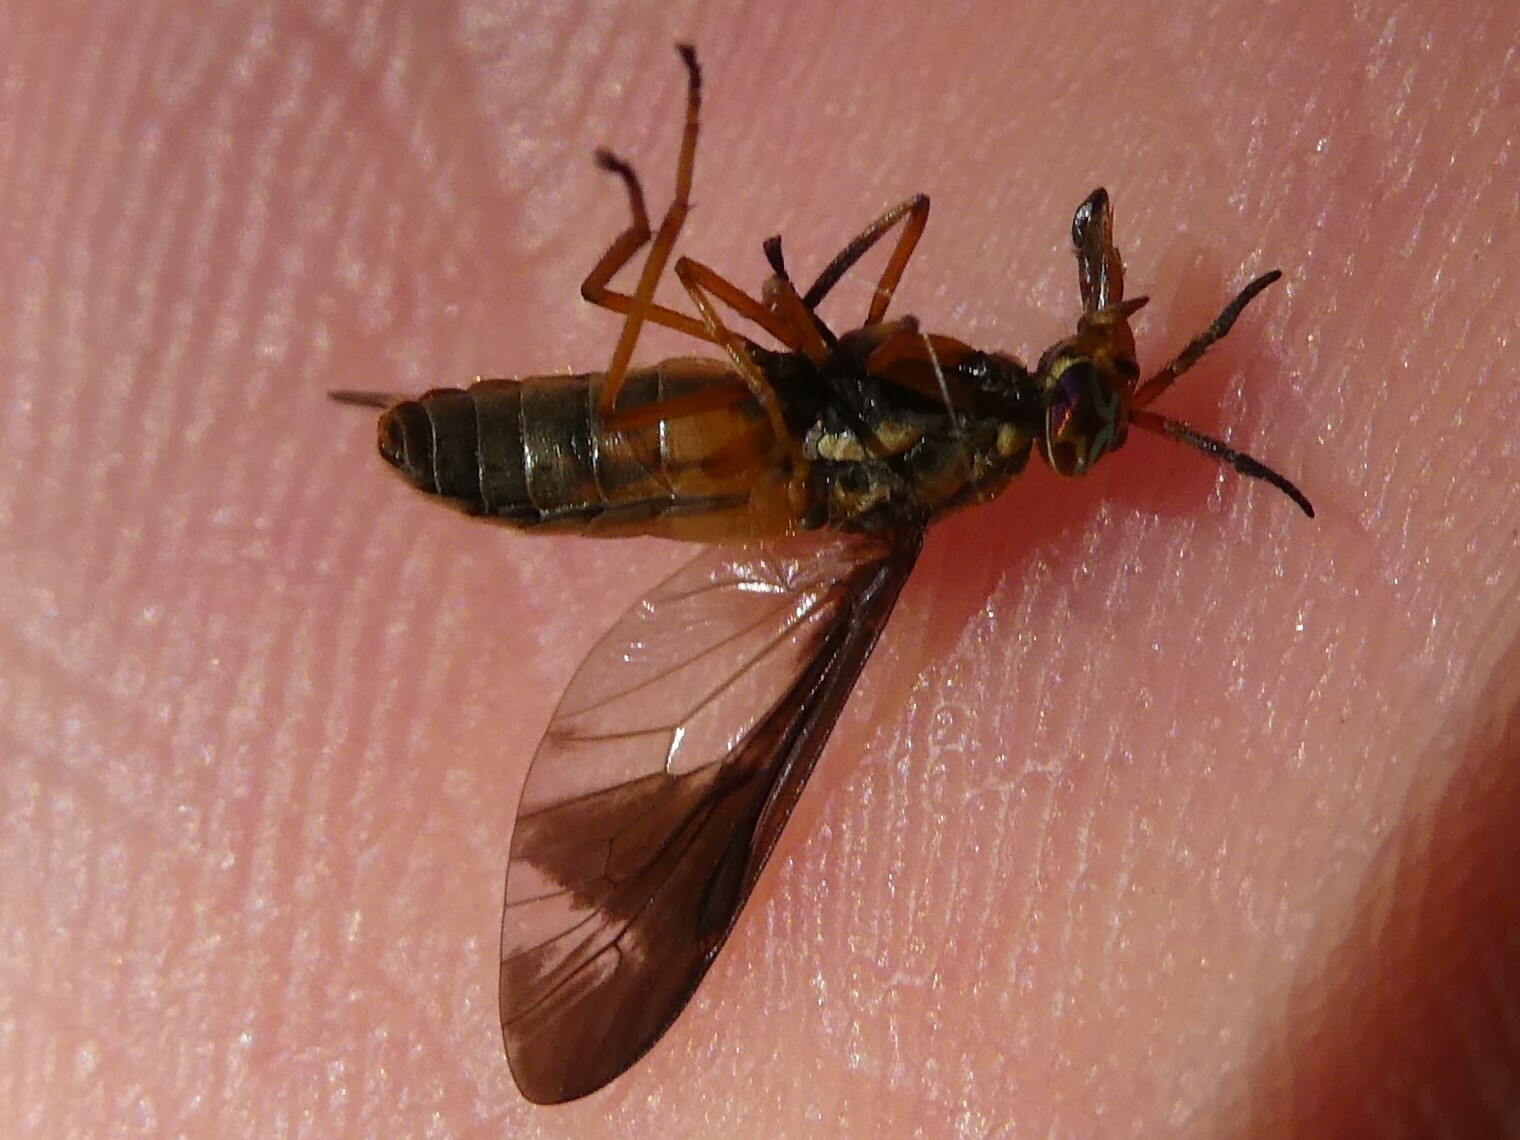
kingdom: Animalia
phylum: Arthropoda
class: Insecta
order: Diptera
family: Tabanidae
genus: Chrysops
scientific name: Chrysops macquarti
